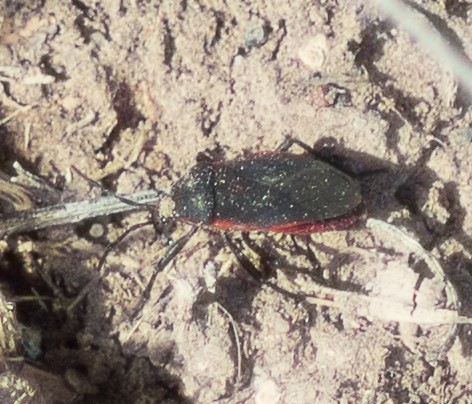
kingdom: Animalia
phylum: Arthropoda
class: Insecta
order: Hemiptera
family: Largidae
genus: Largus
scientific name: Largus rufipennis
